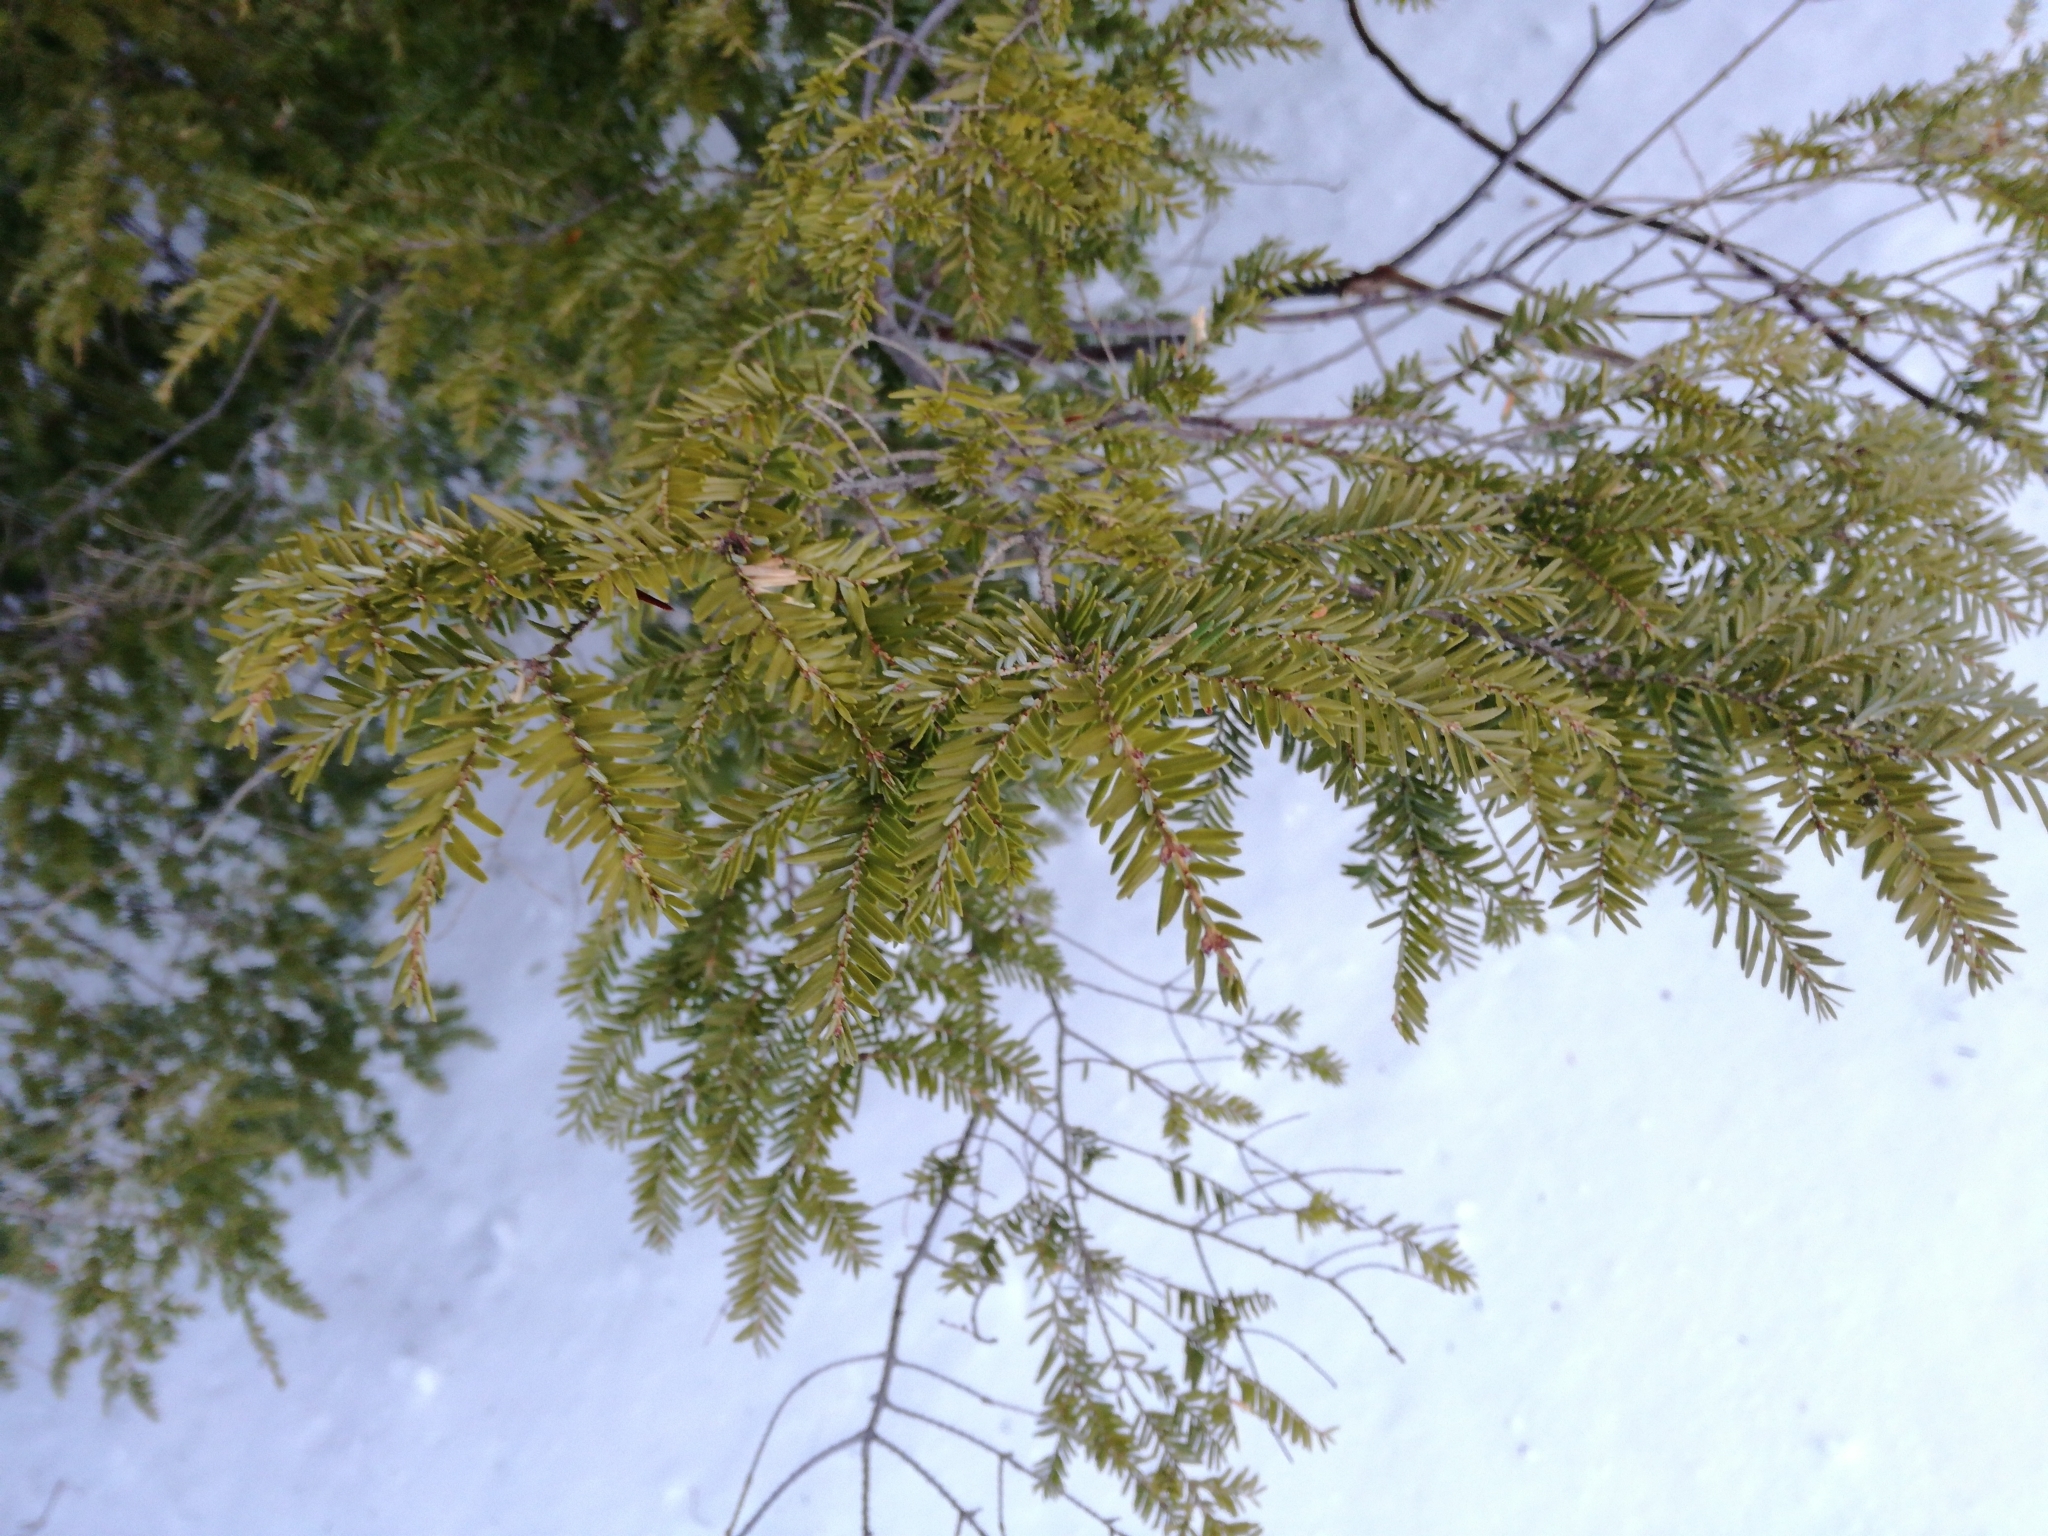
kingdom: Plantae
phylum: Tracheophyta
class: Pinopsida
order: Pinales
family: Pinaceae
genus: Tsuga
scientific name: Tsuga canadensis
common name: Eastern hemlock
